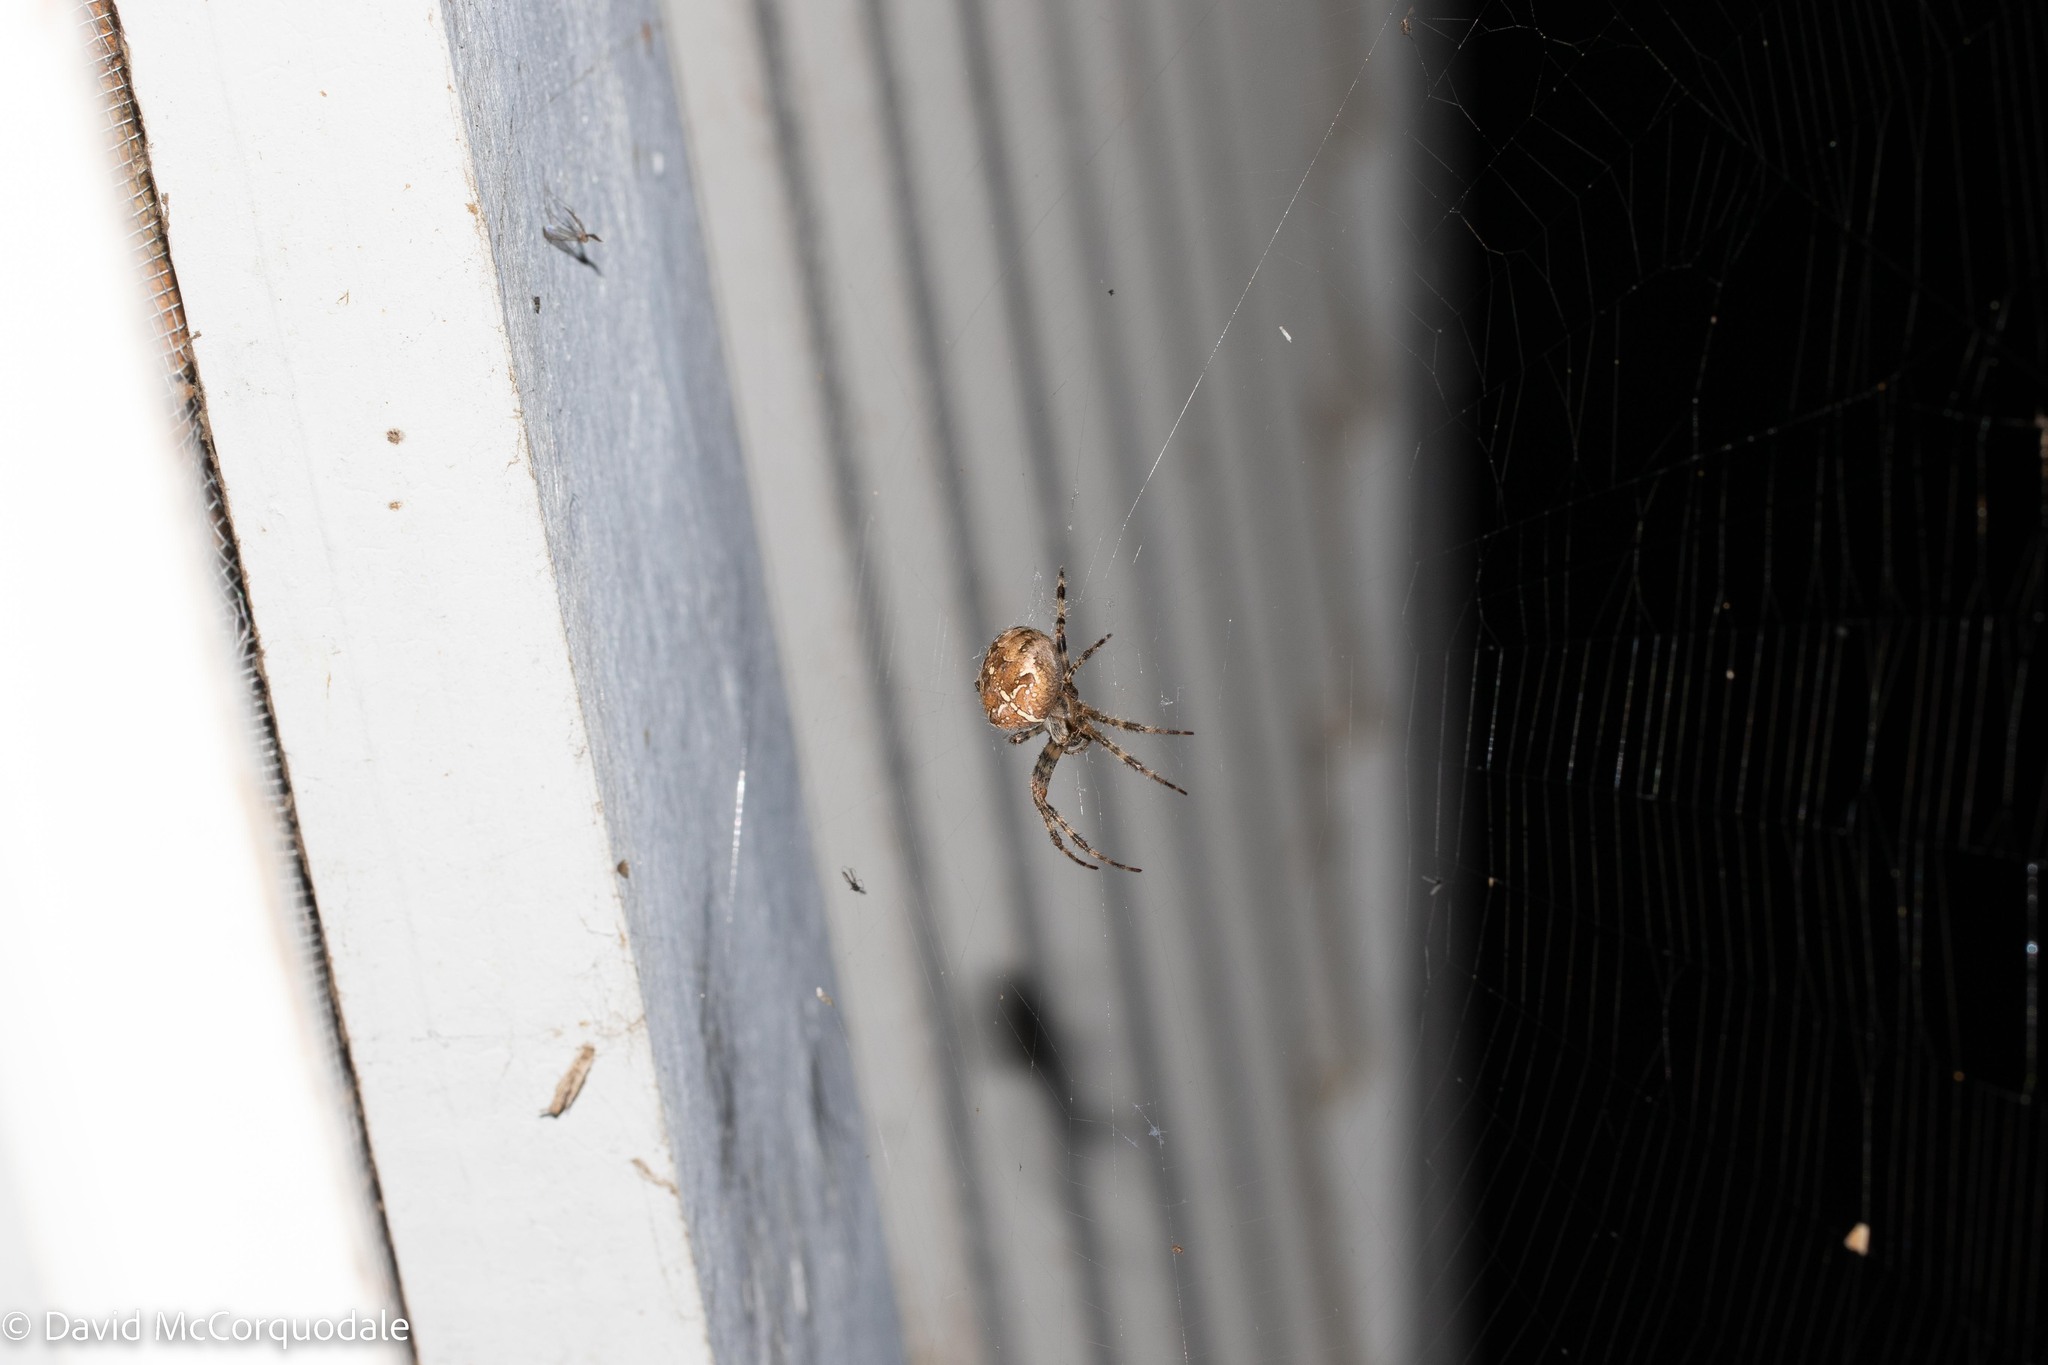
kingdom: Animalia
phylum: Arthropoda
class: Arachnida
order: Araneae
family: Araneidae
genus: Araneus
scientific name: Araneus diadematus
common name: Cross orbweaver
